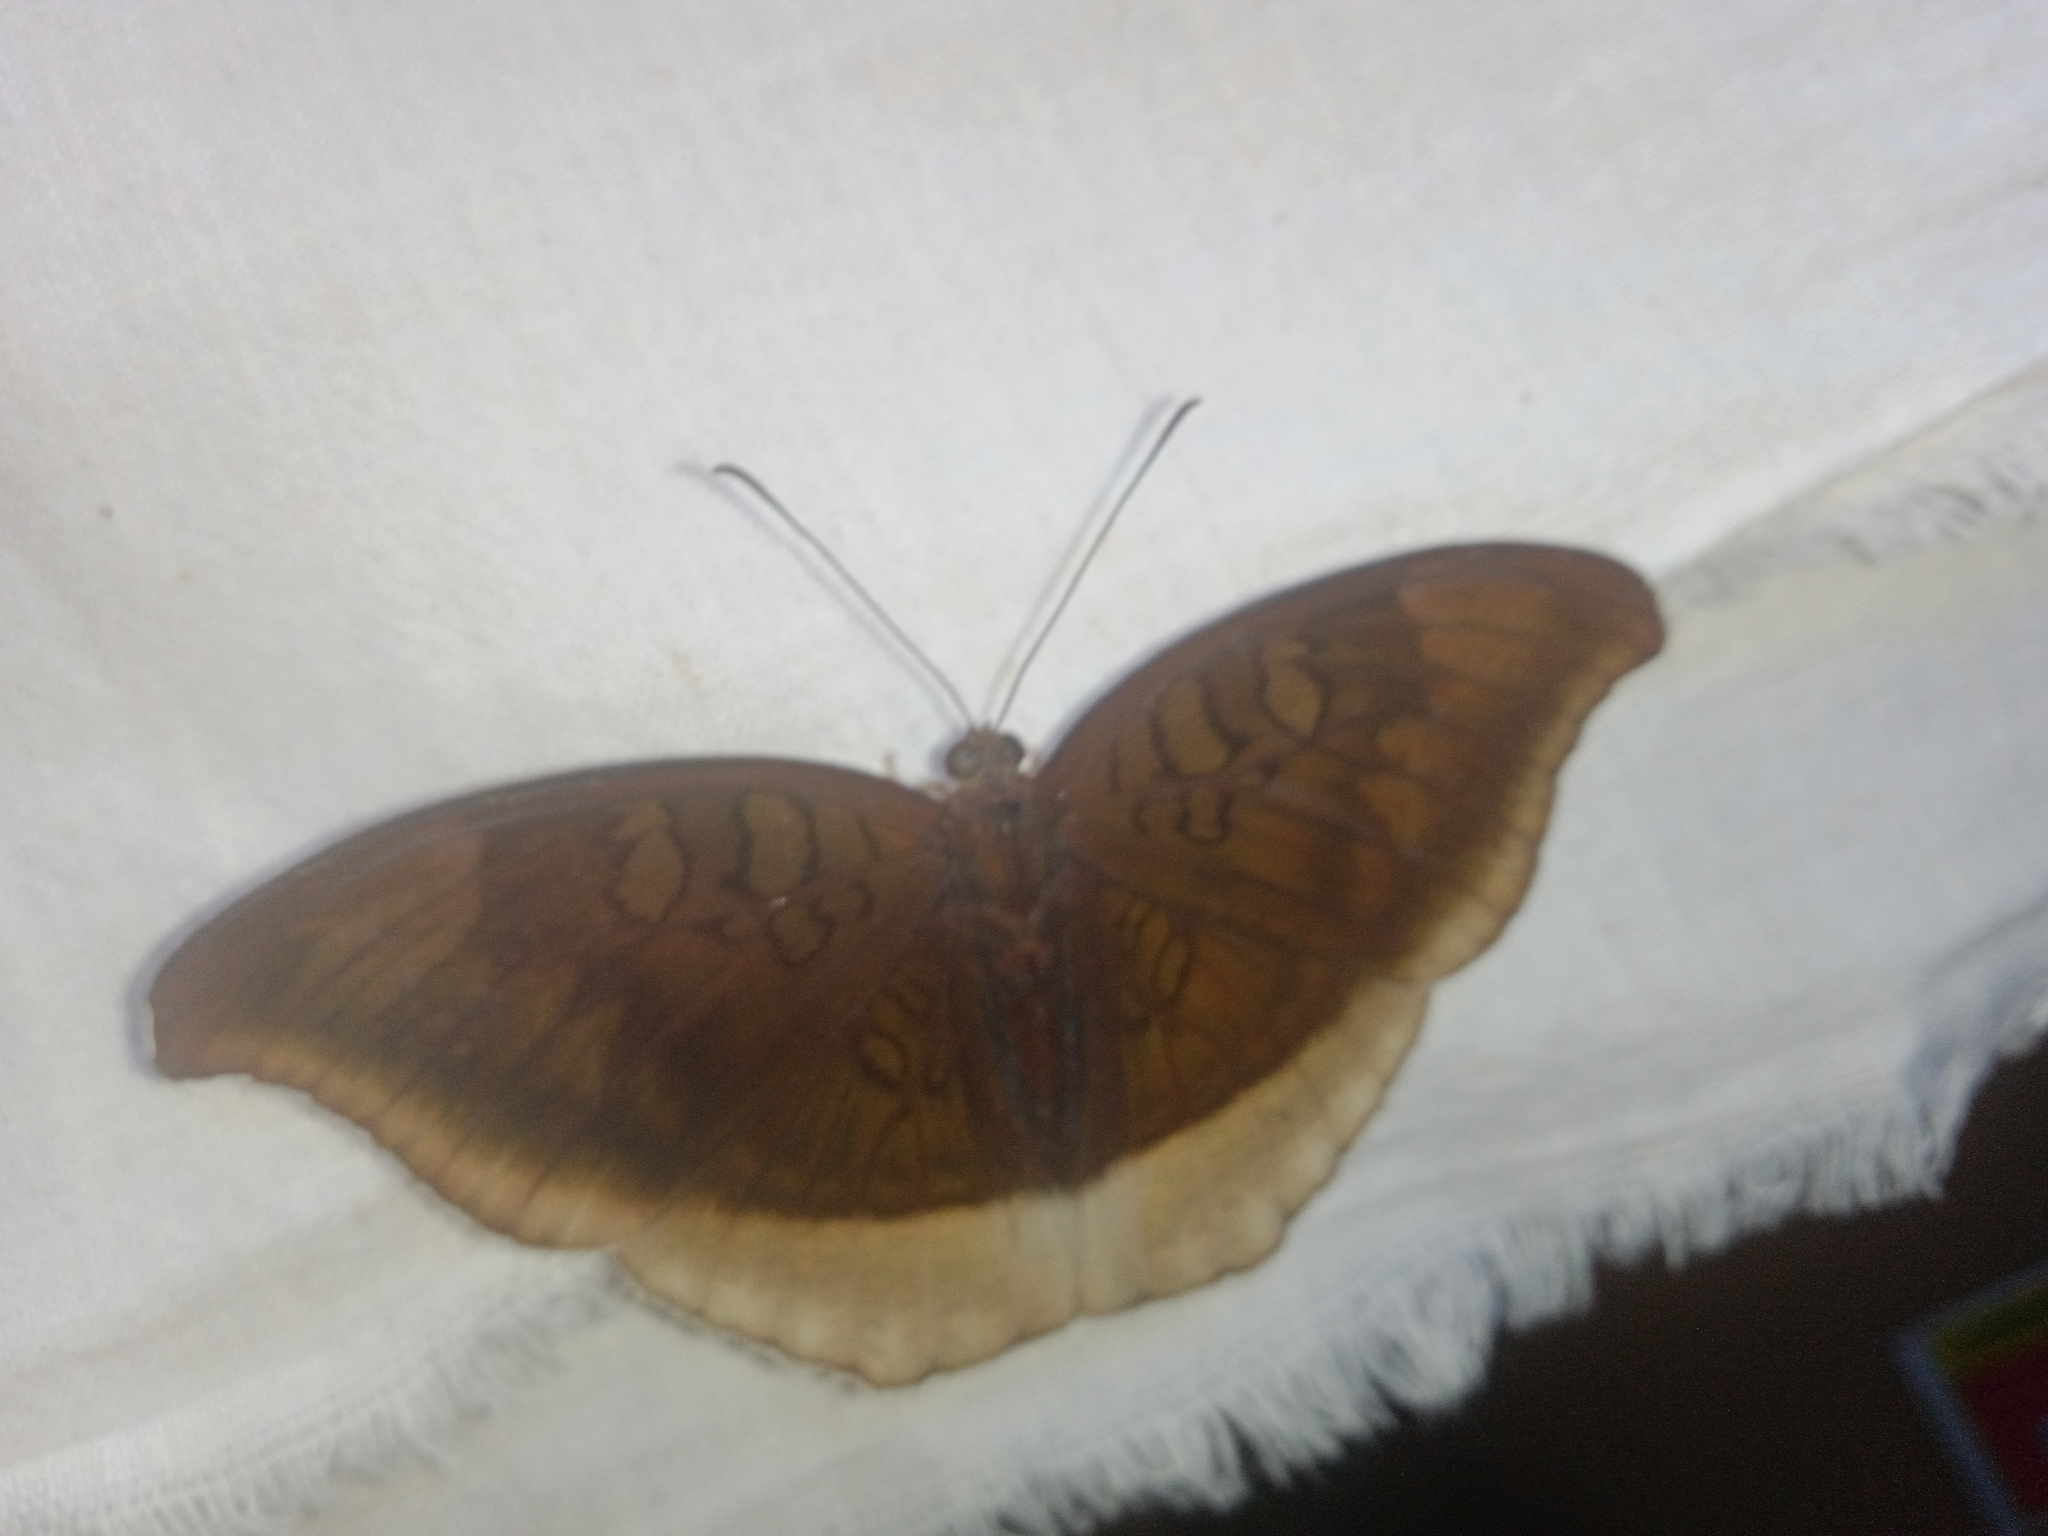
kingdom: Animalia
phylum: Arthropoda
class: Insecta
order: Lepidoptera
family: Nymphalidae
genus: Tanaecia
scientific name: Tanaecia lepidea
